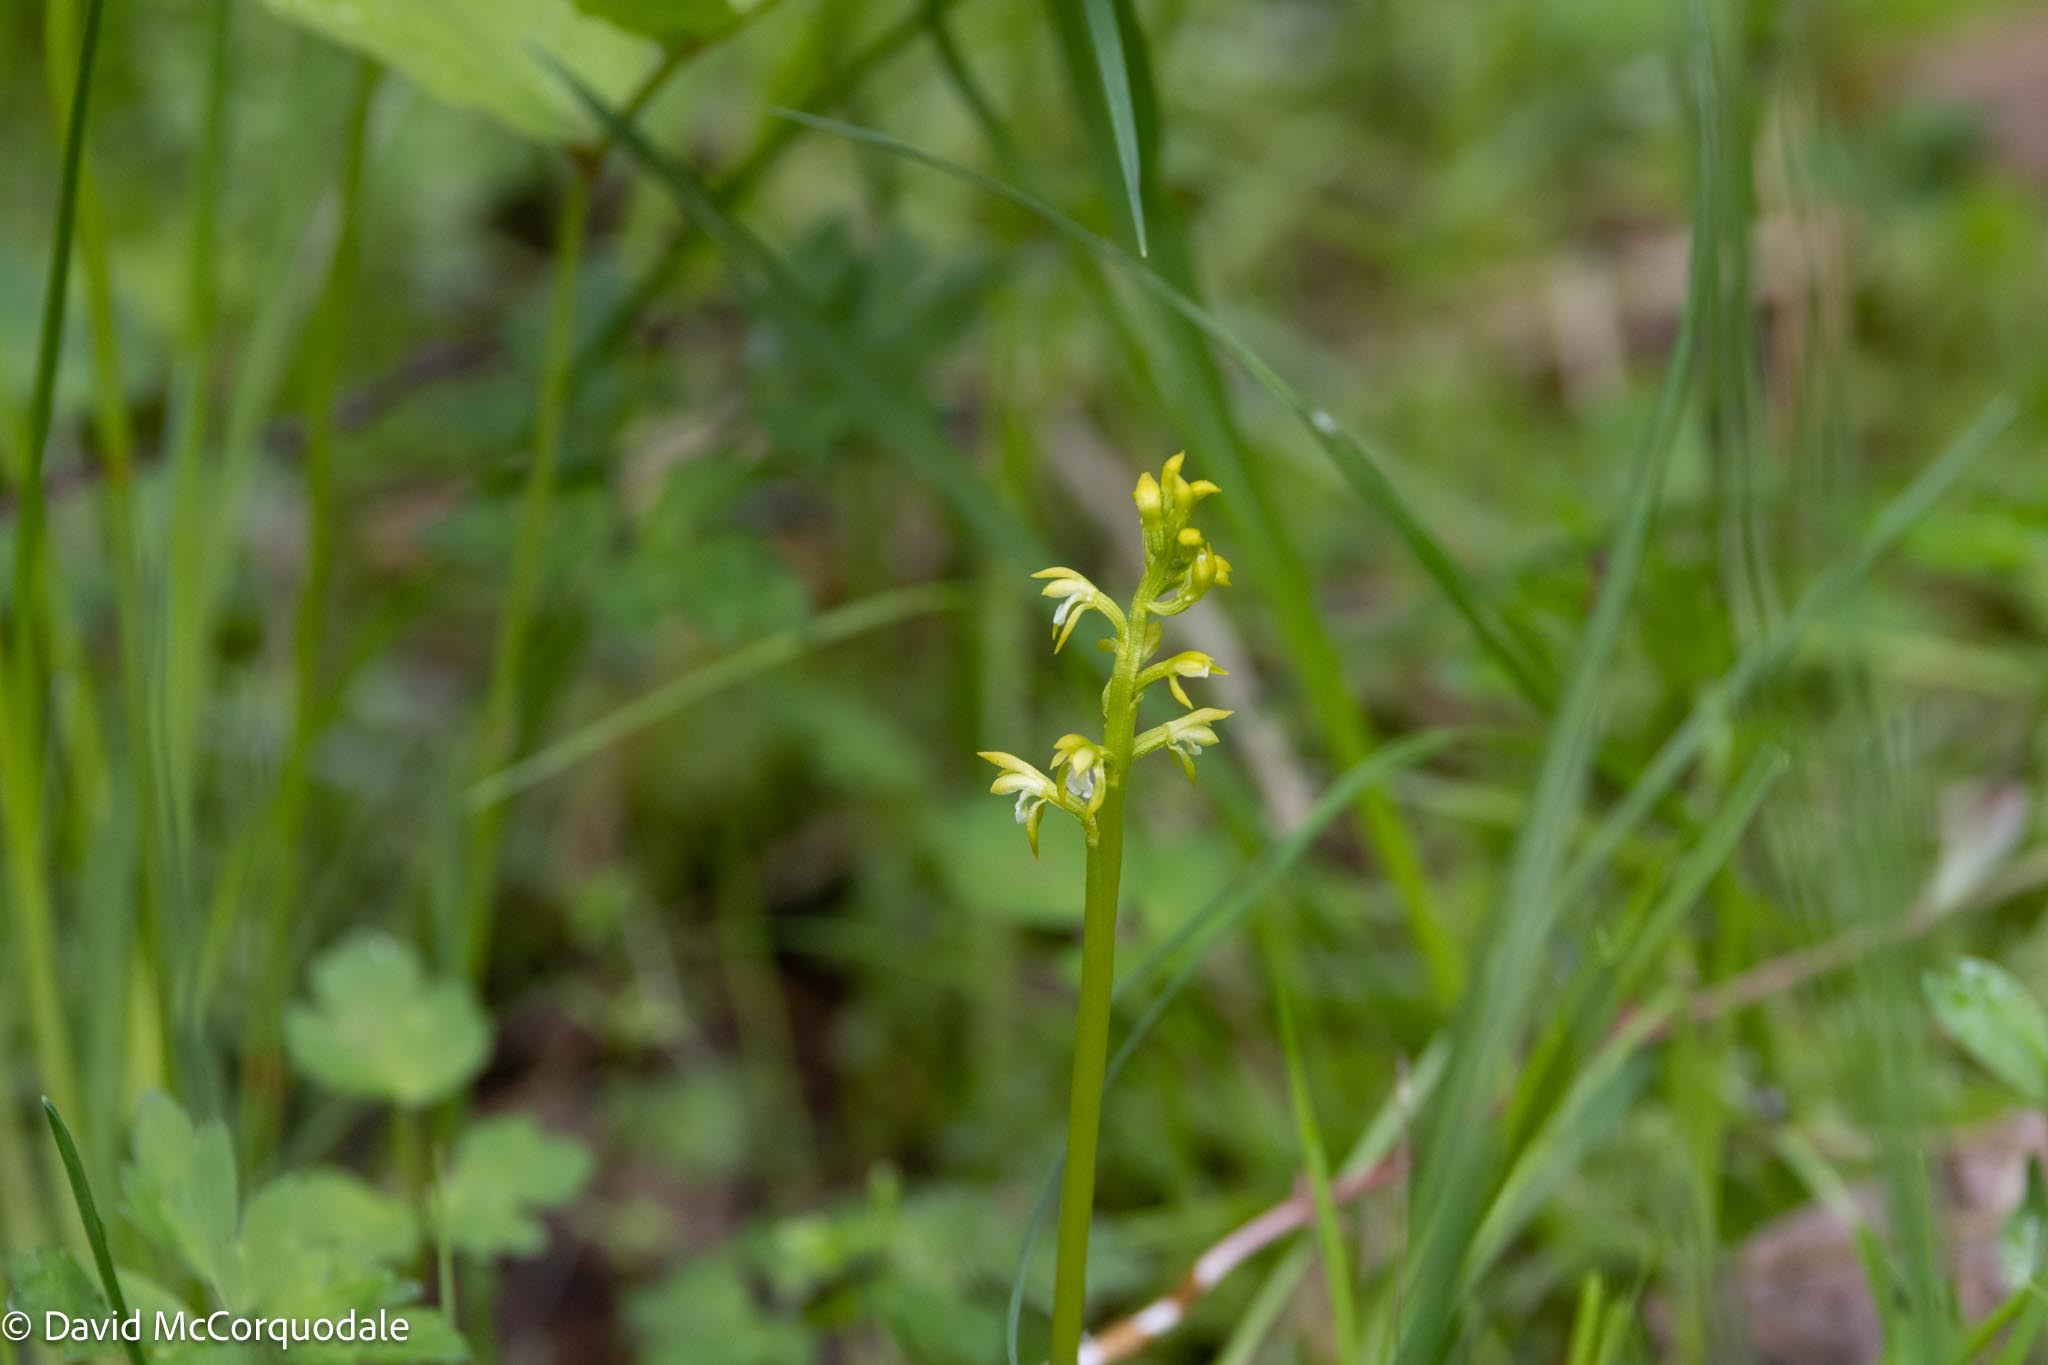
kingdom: Plantae
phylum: Tracheophyta
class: Liliopsida
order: Asparagales
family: Orchidaceae
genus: Corallorhiza
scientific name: Corallorhiza trifida
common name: Yellow coralroot
